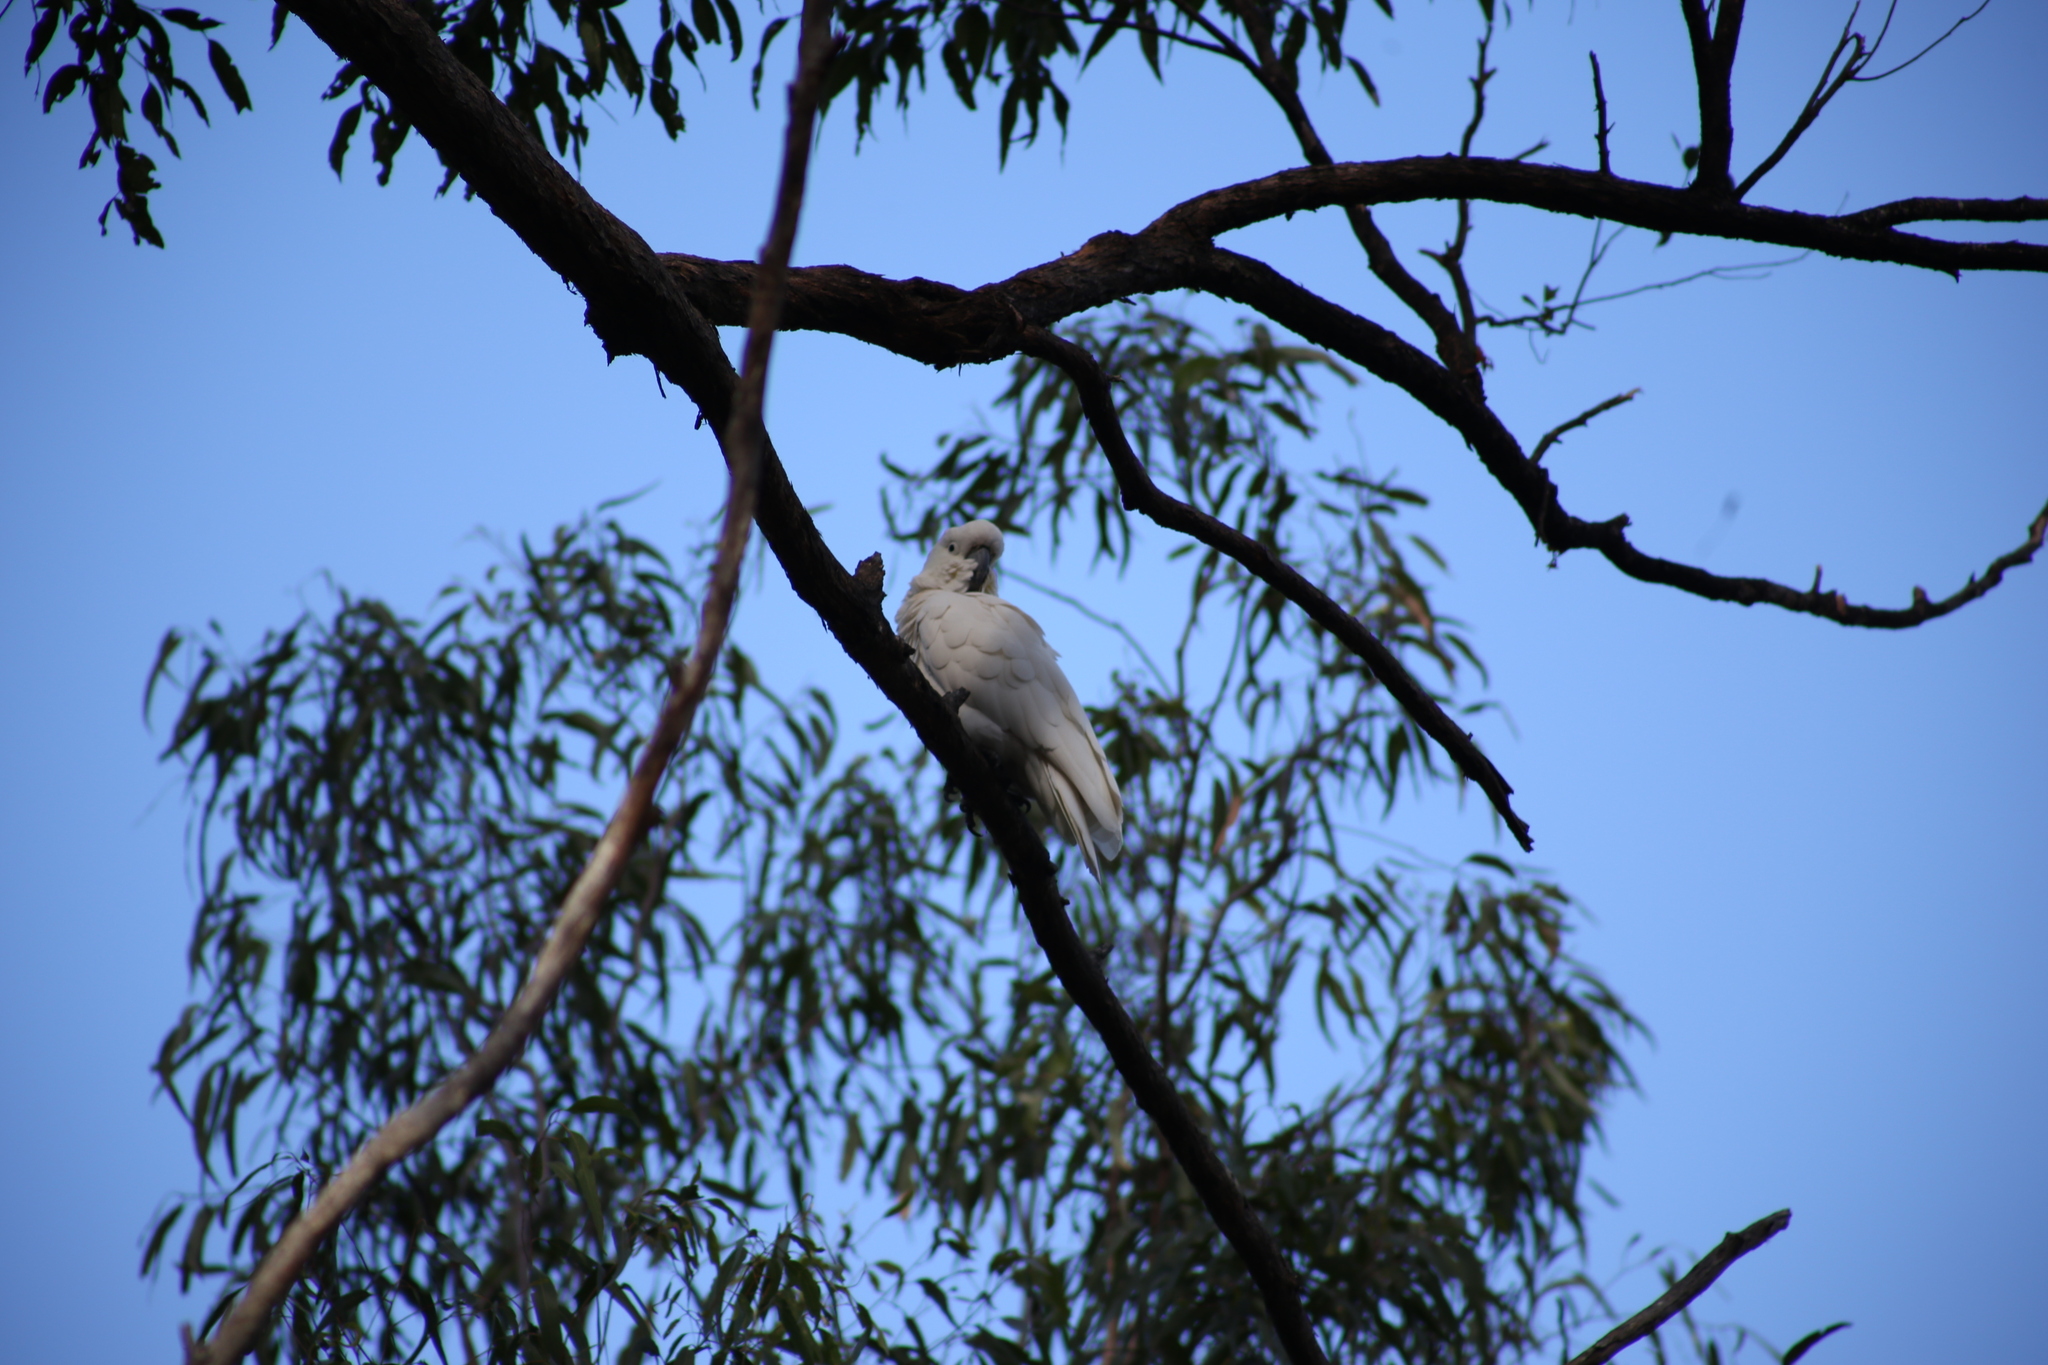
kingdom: Animalia
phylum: Chordata
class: Aves
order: Psittaciformes
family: Psittacidae
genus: Cacatua
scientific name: Cacatua galerita
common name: Sulphur-crested cockatoo
